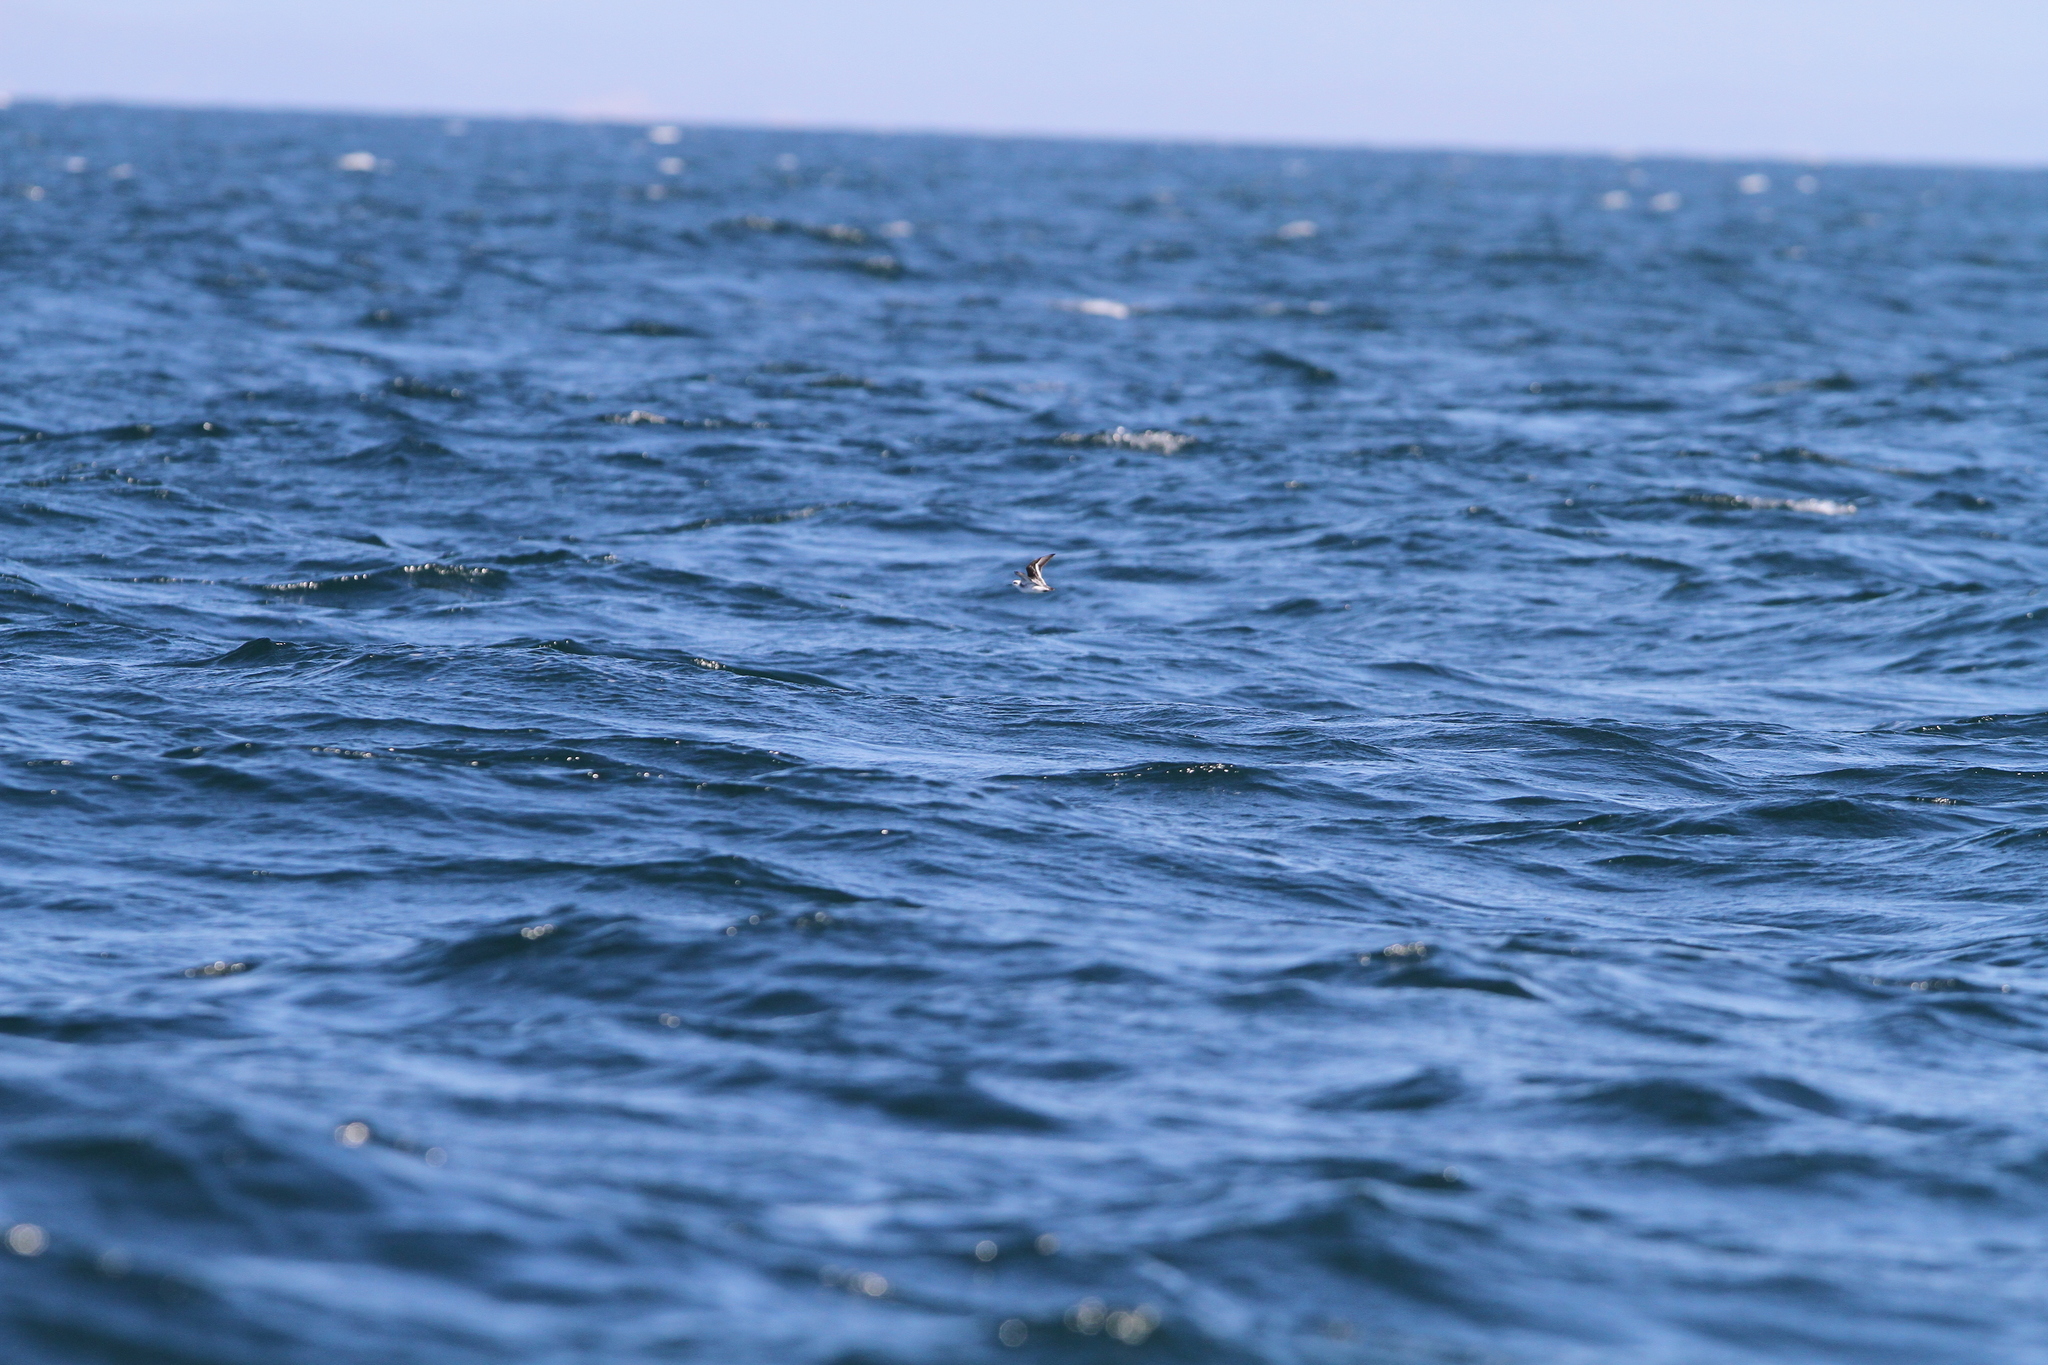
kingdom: Animalia
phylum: Chordata
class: Aves
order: Charadriiformes
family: Scolopacidae
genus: Phalaropus
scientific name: Phalaropus lobatus
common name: Red-necked phalarope
